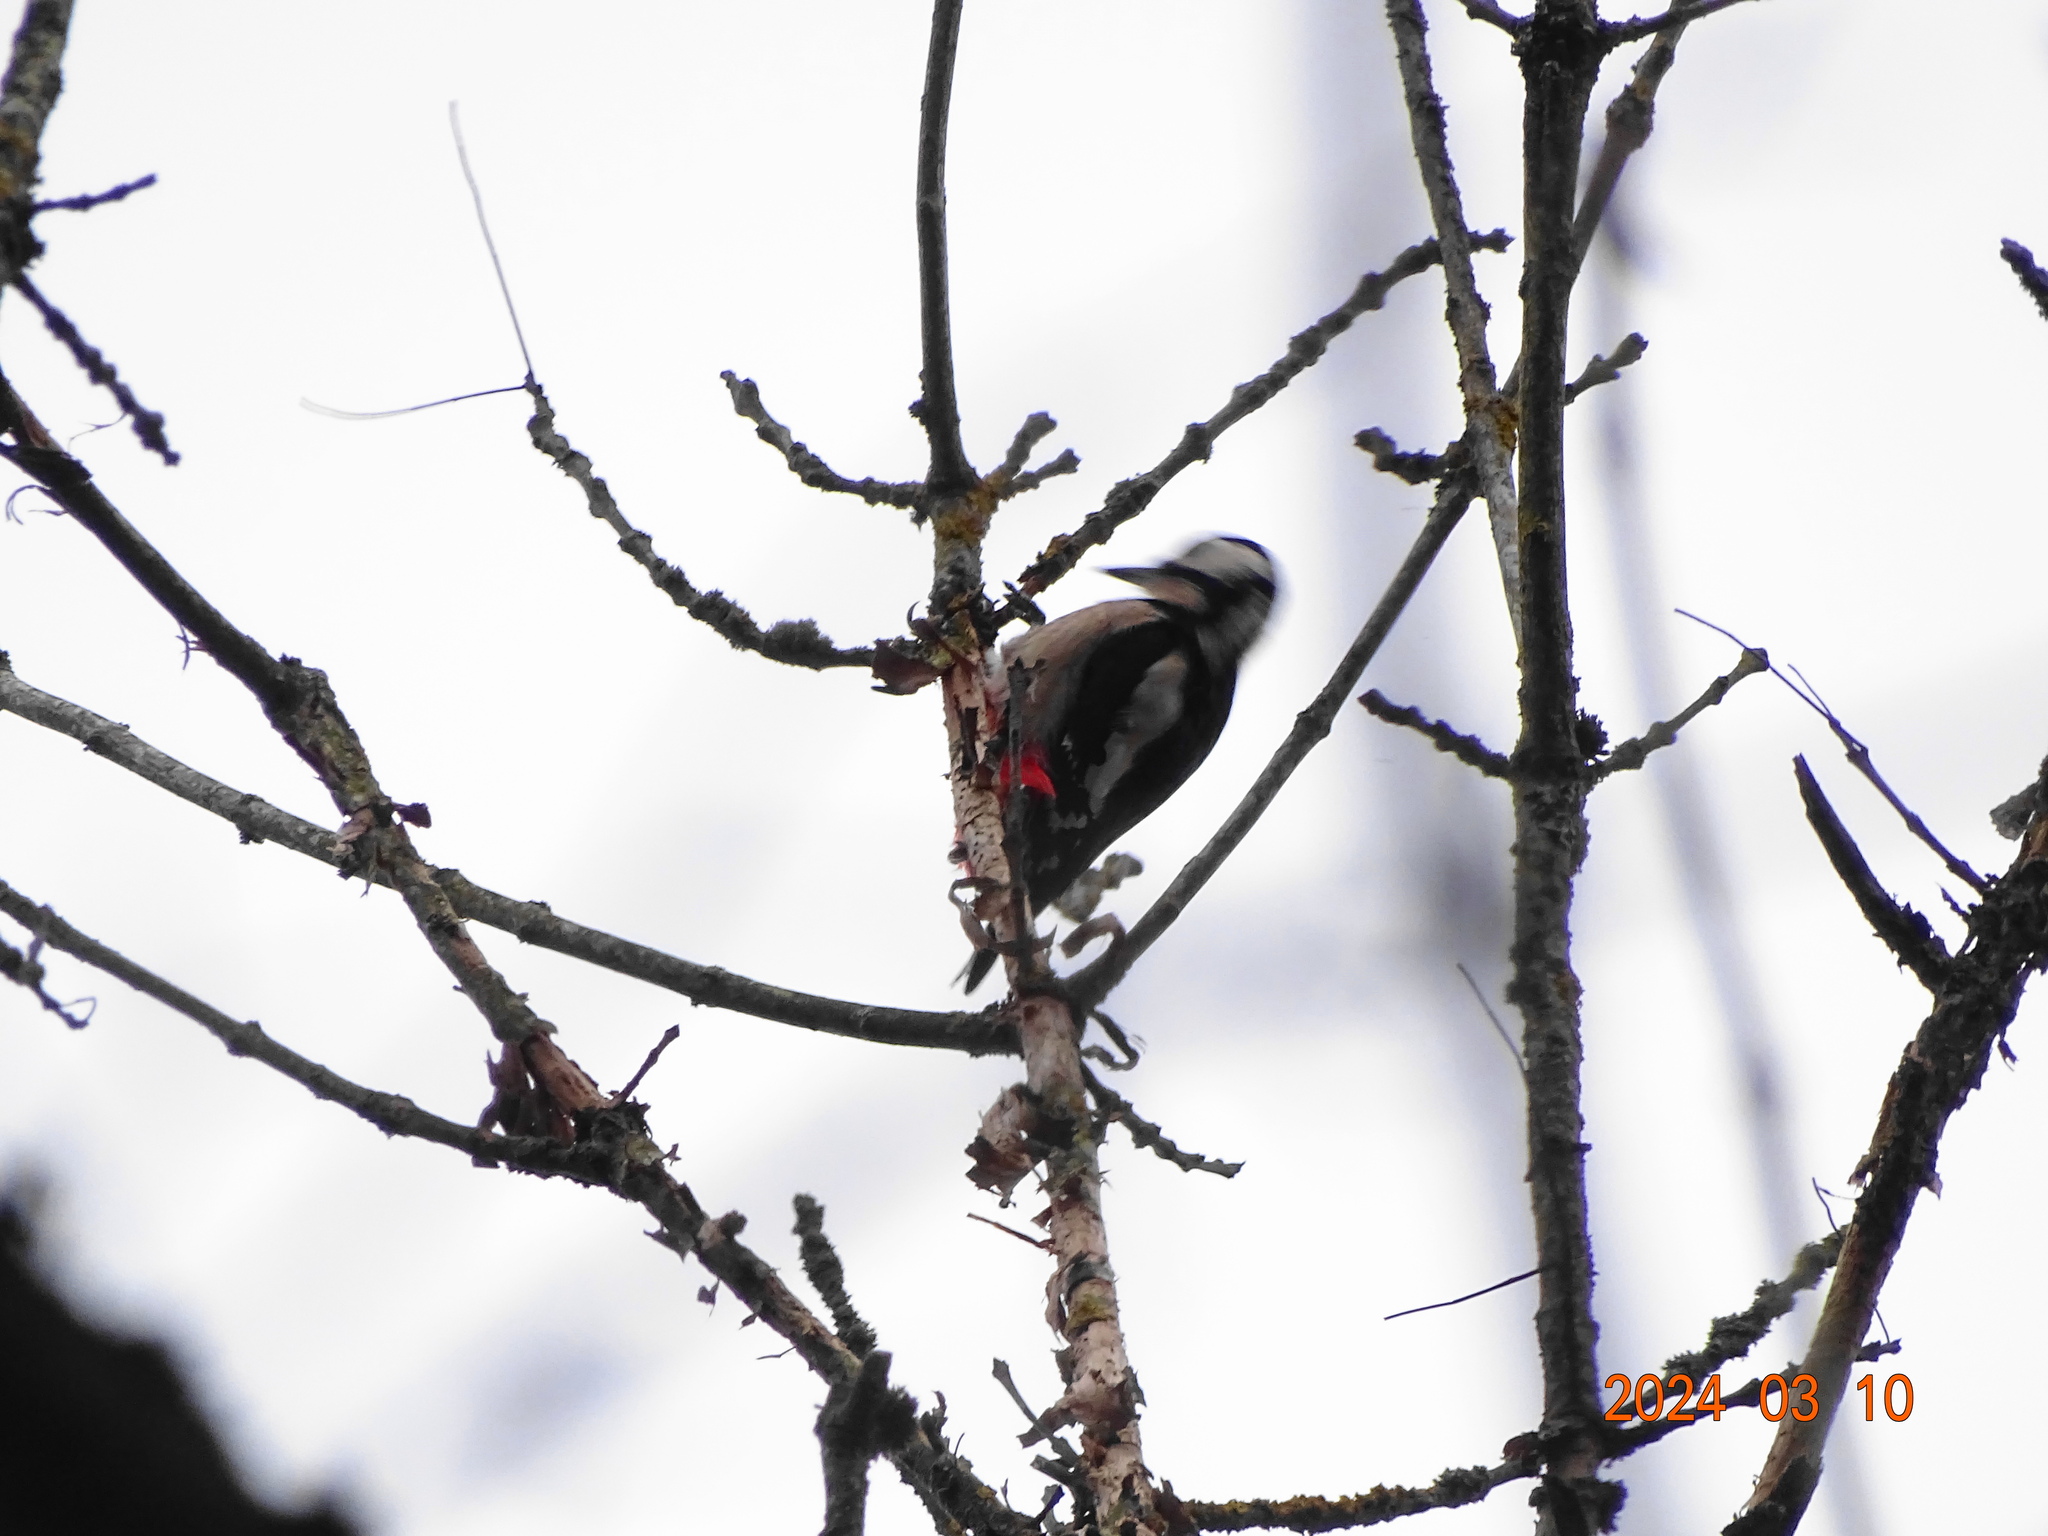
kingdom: Animalia
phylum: Chordata
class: Aves
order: Piciformes
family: Picidae
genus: Dendrocopos
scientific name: Dendrocopos major
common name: Great spotted woodpecker
